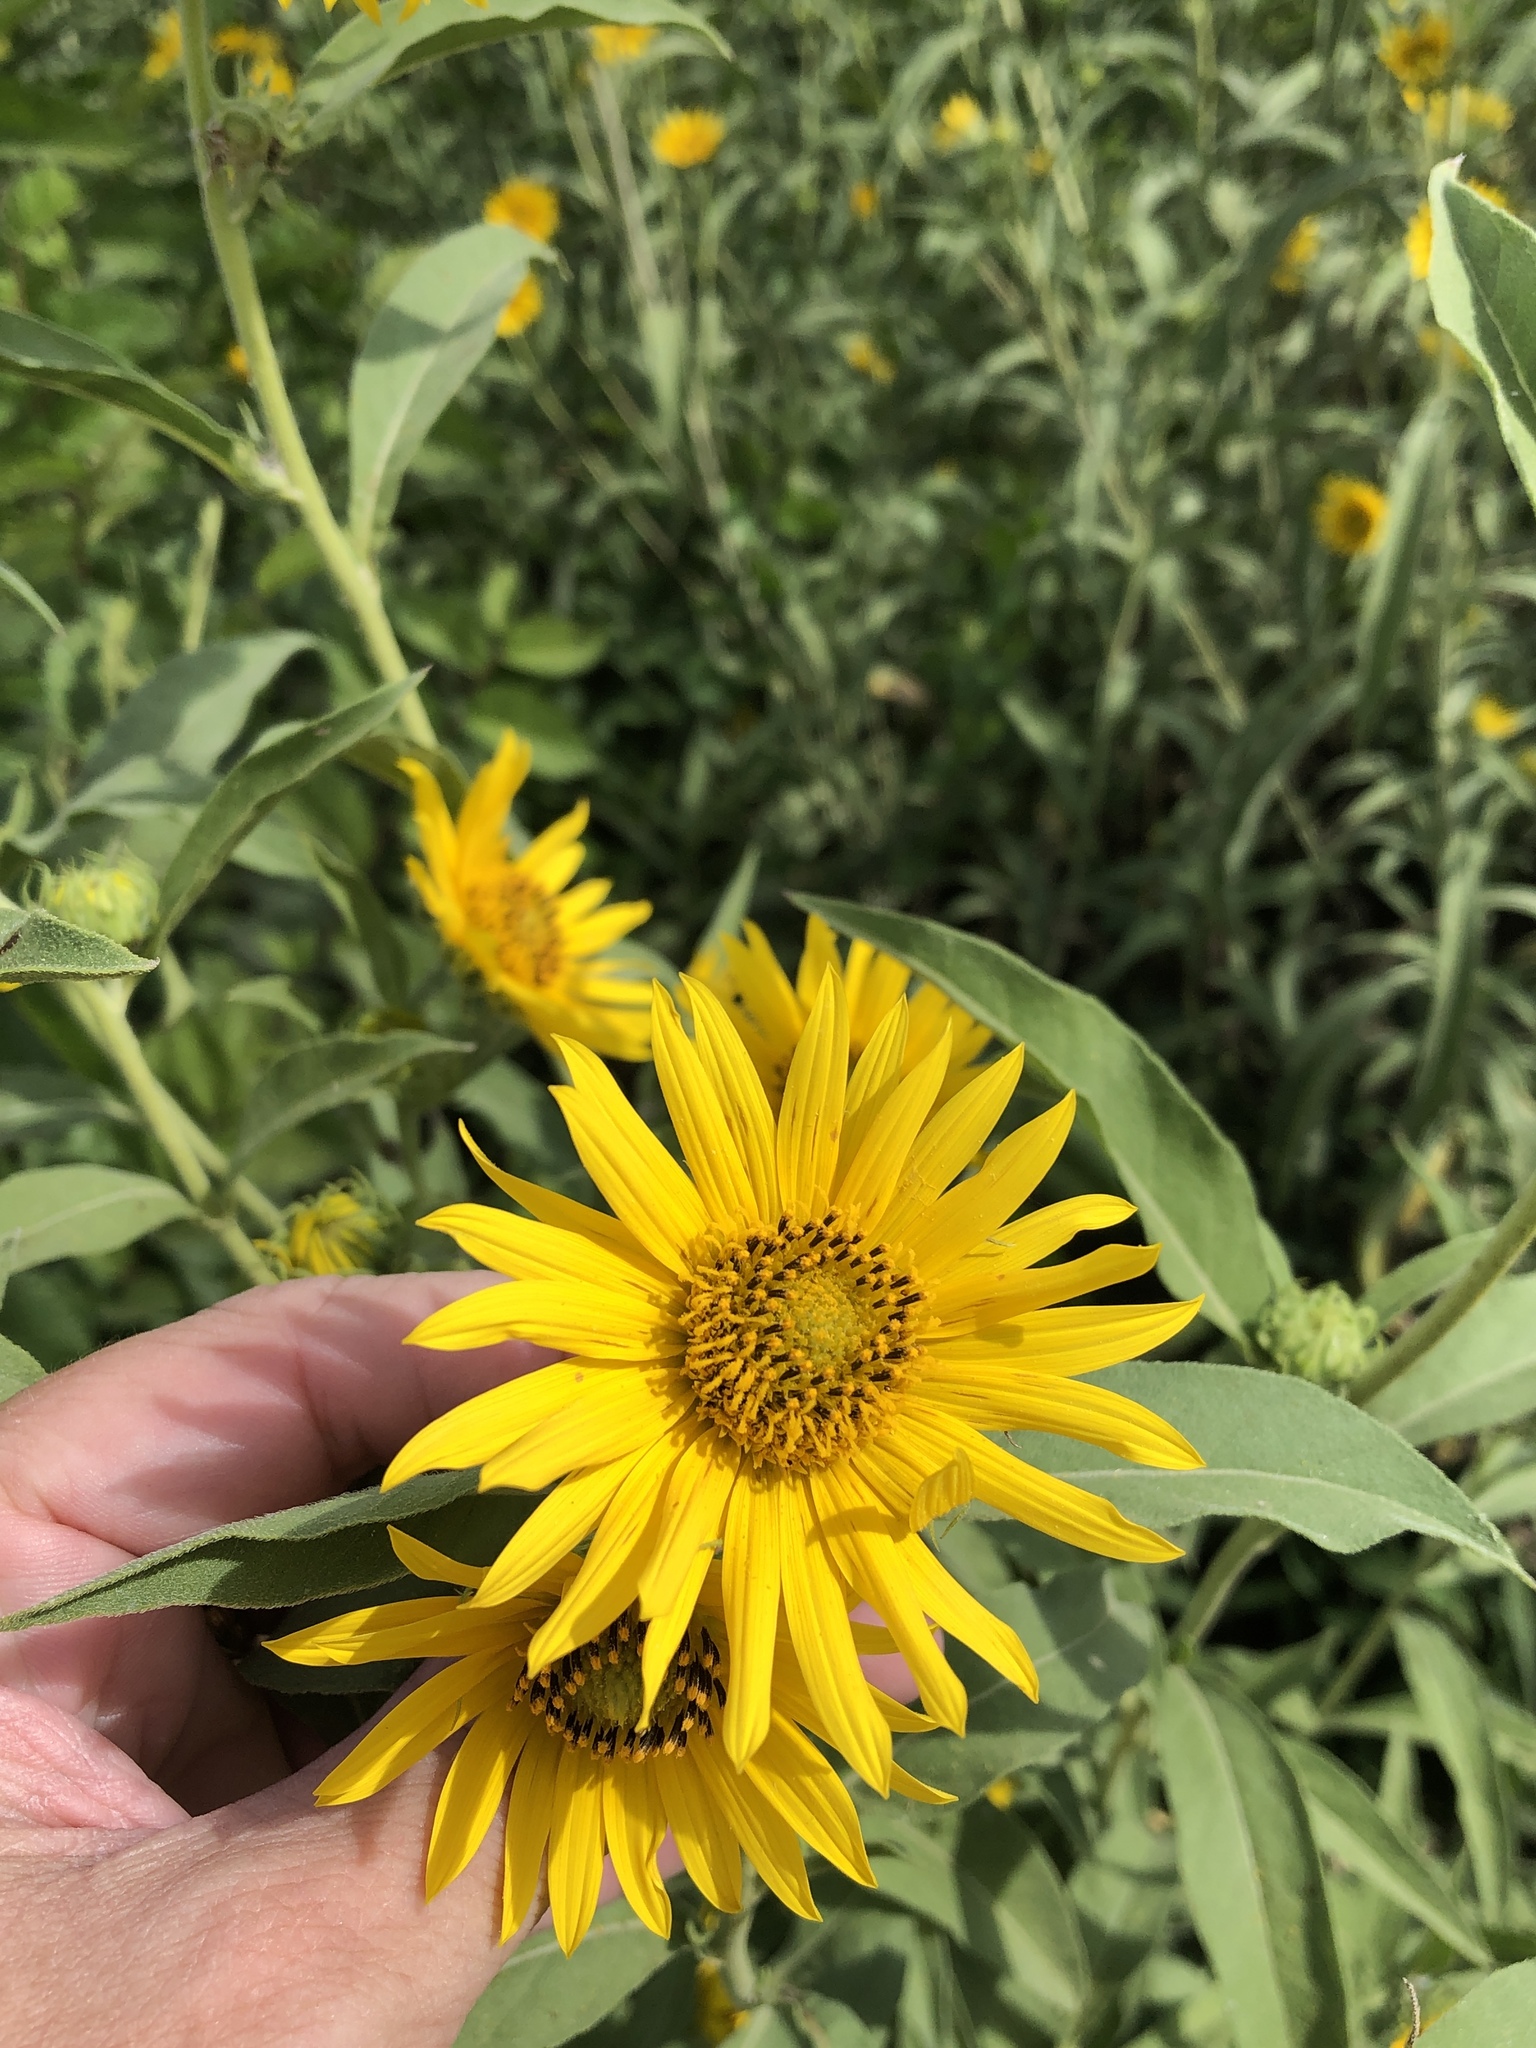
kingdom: Plantae
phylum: Tracheophyta
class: Magnoliopsida
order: Asterales
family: Asteraceae
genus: Helianthus
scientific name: Helianthus maximiliani
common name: Maximilian's sunflower
